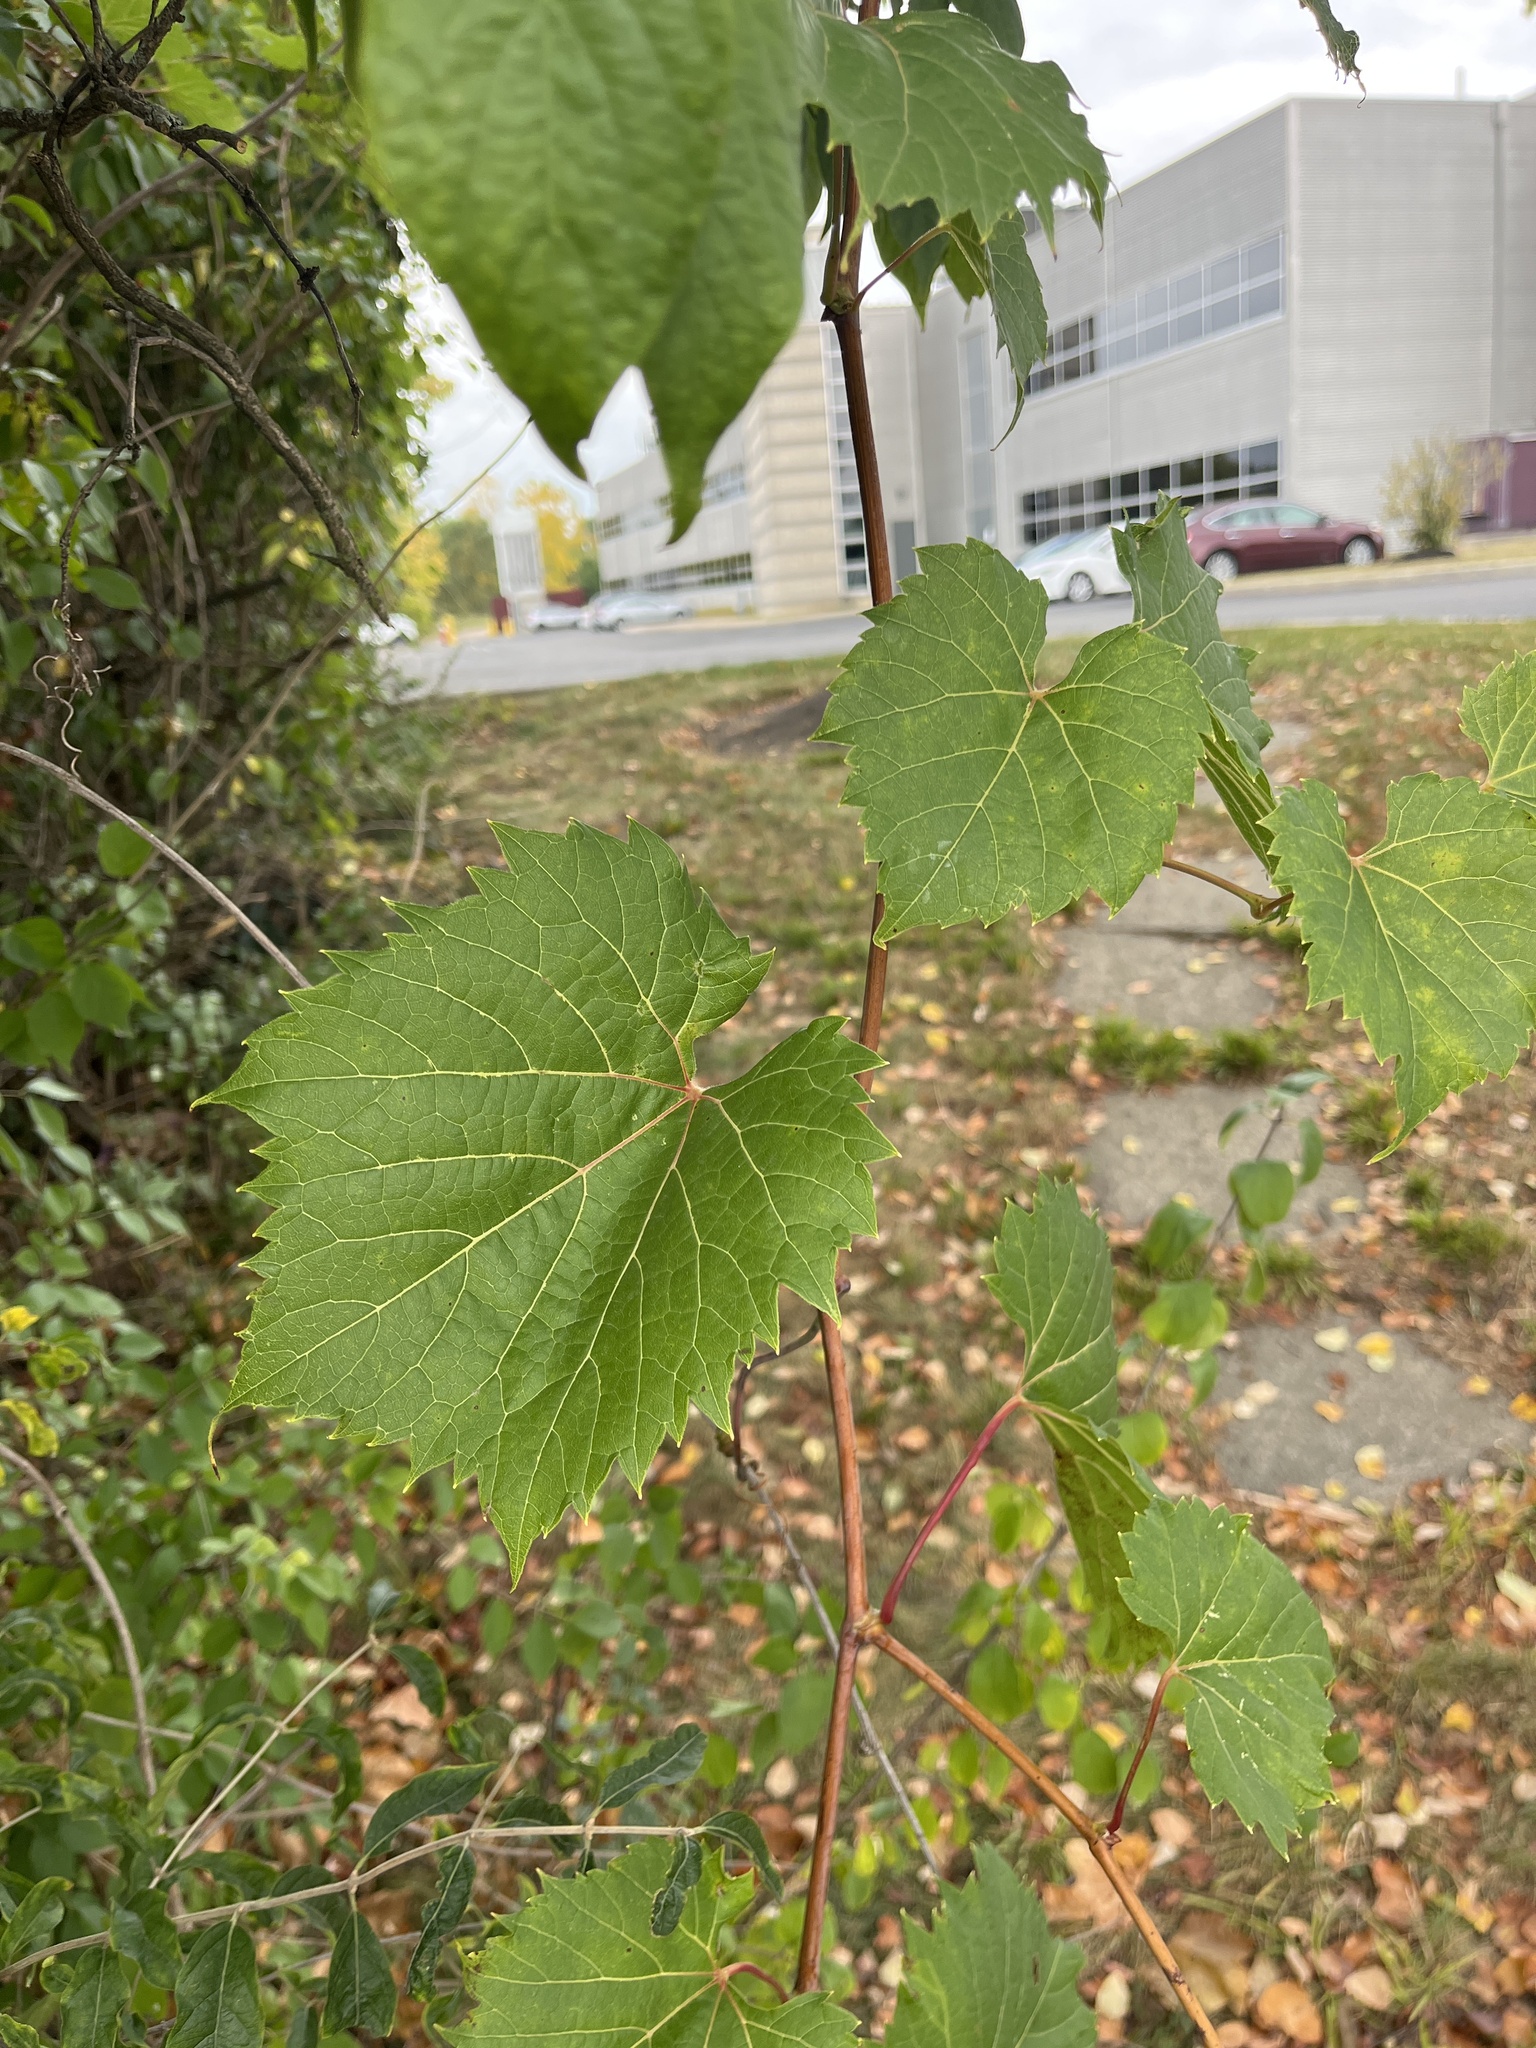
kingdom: Plantae
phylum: Tracheophyta
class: Magnoliopsida
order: Vitales
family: Vitaceae
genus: Vitis
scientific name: Vitis riparia
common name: Frost grape
